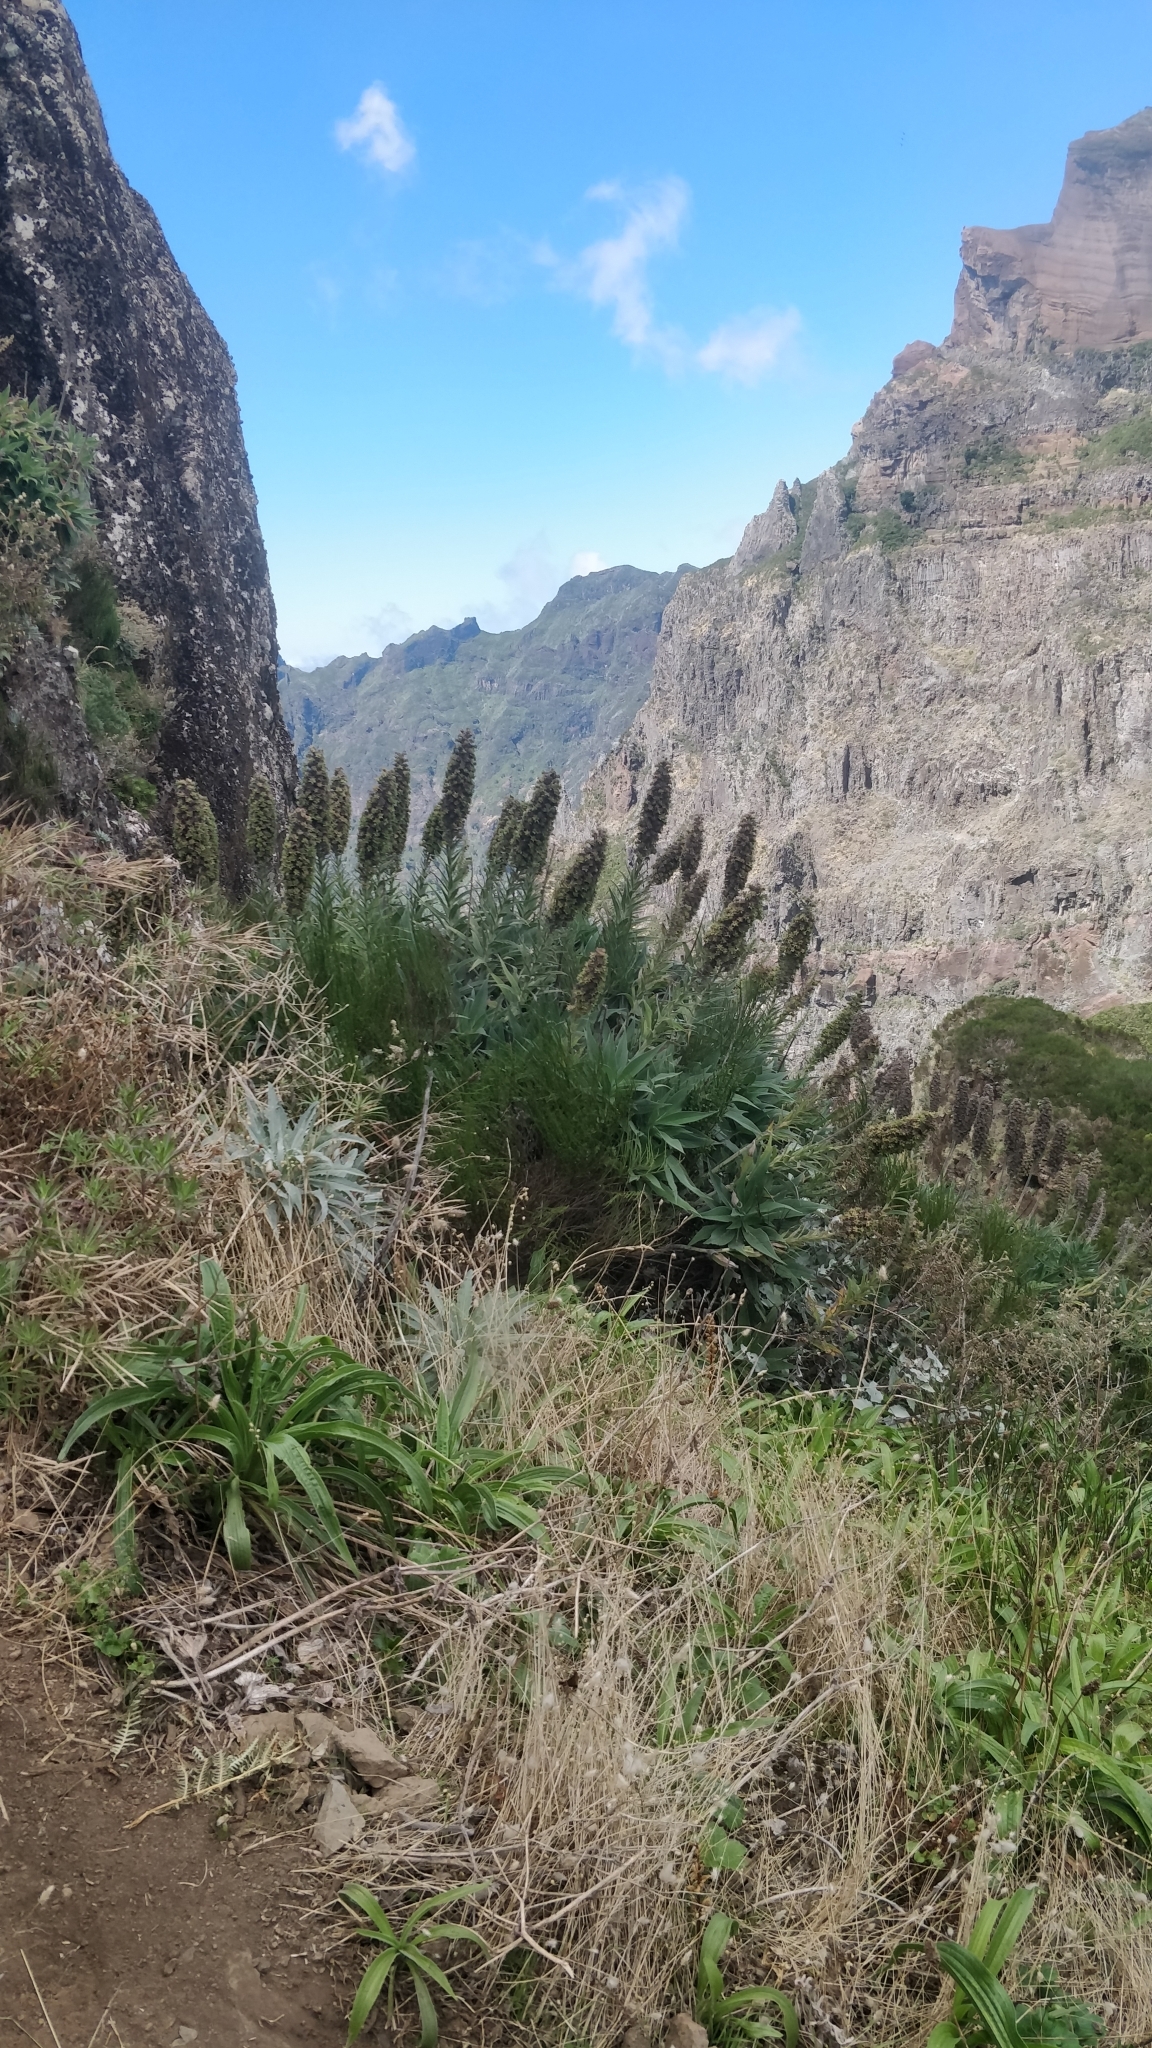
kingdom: Plantae
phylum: Tracheophyta
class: Magnoliopsida
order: Boraginales
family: Boraginaceae
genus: Echium
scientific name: Echium candicans
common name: Pride of madeira
